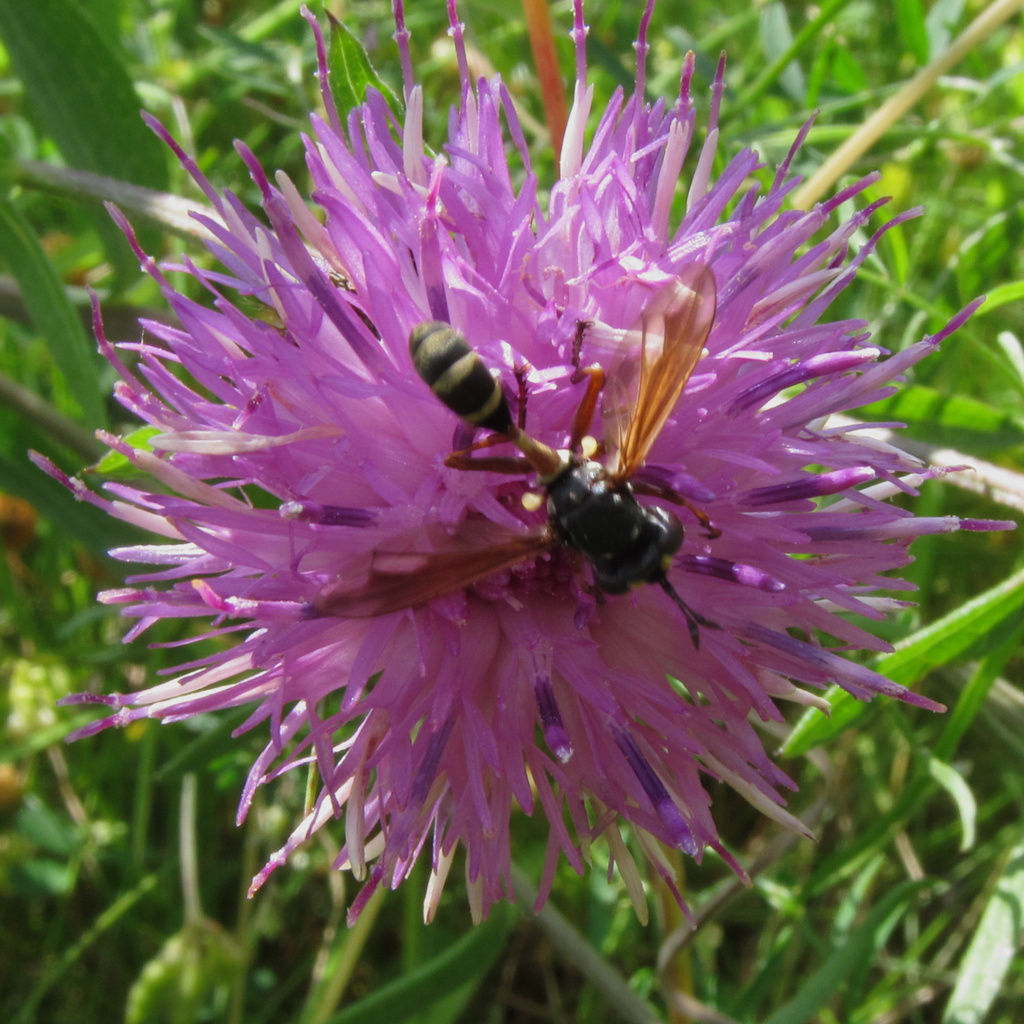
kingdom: Animalia
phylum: Arthropoda
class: Insecta
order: Diptera
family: Conopidae
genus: Physocephala
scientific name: Physocephala rufipes
